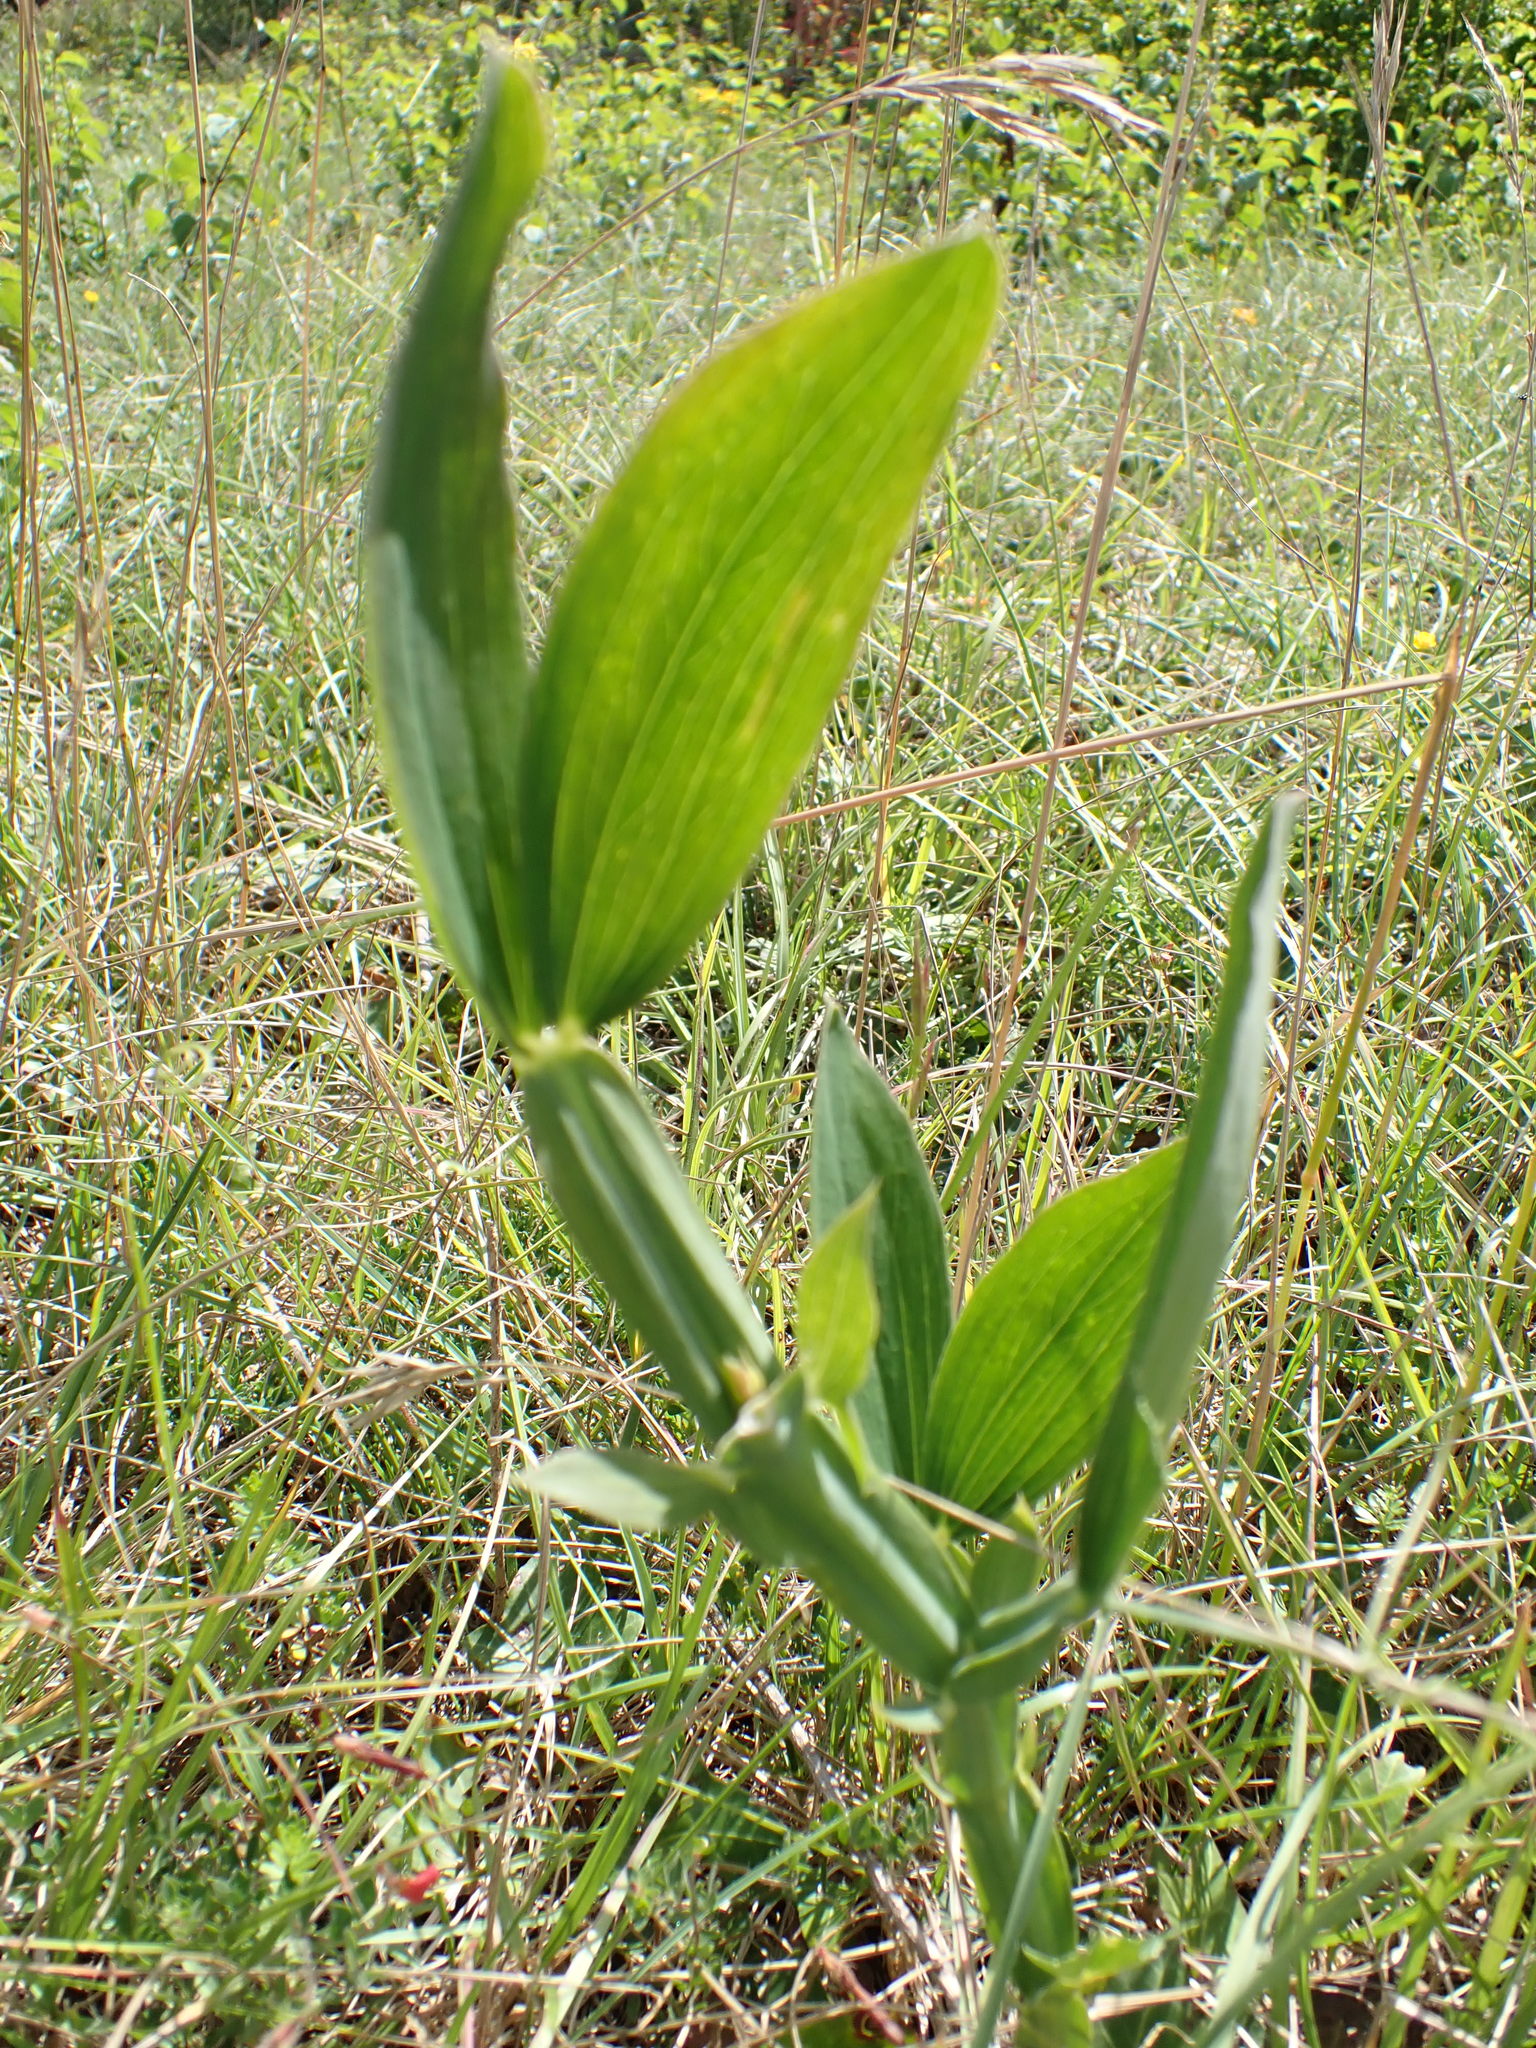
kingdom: Plantae
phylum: Tracheophyta
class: Magnoliopsida
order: Fabales
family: Fabaceae
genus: Lathyrus
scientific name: Lathyrus latifolius
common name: Perennial pea
